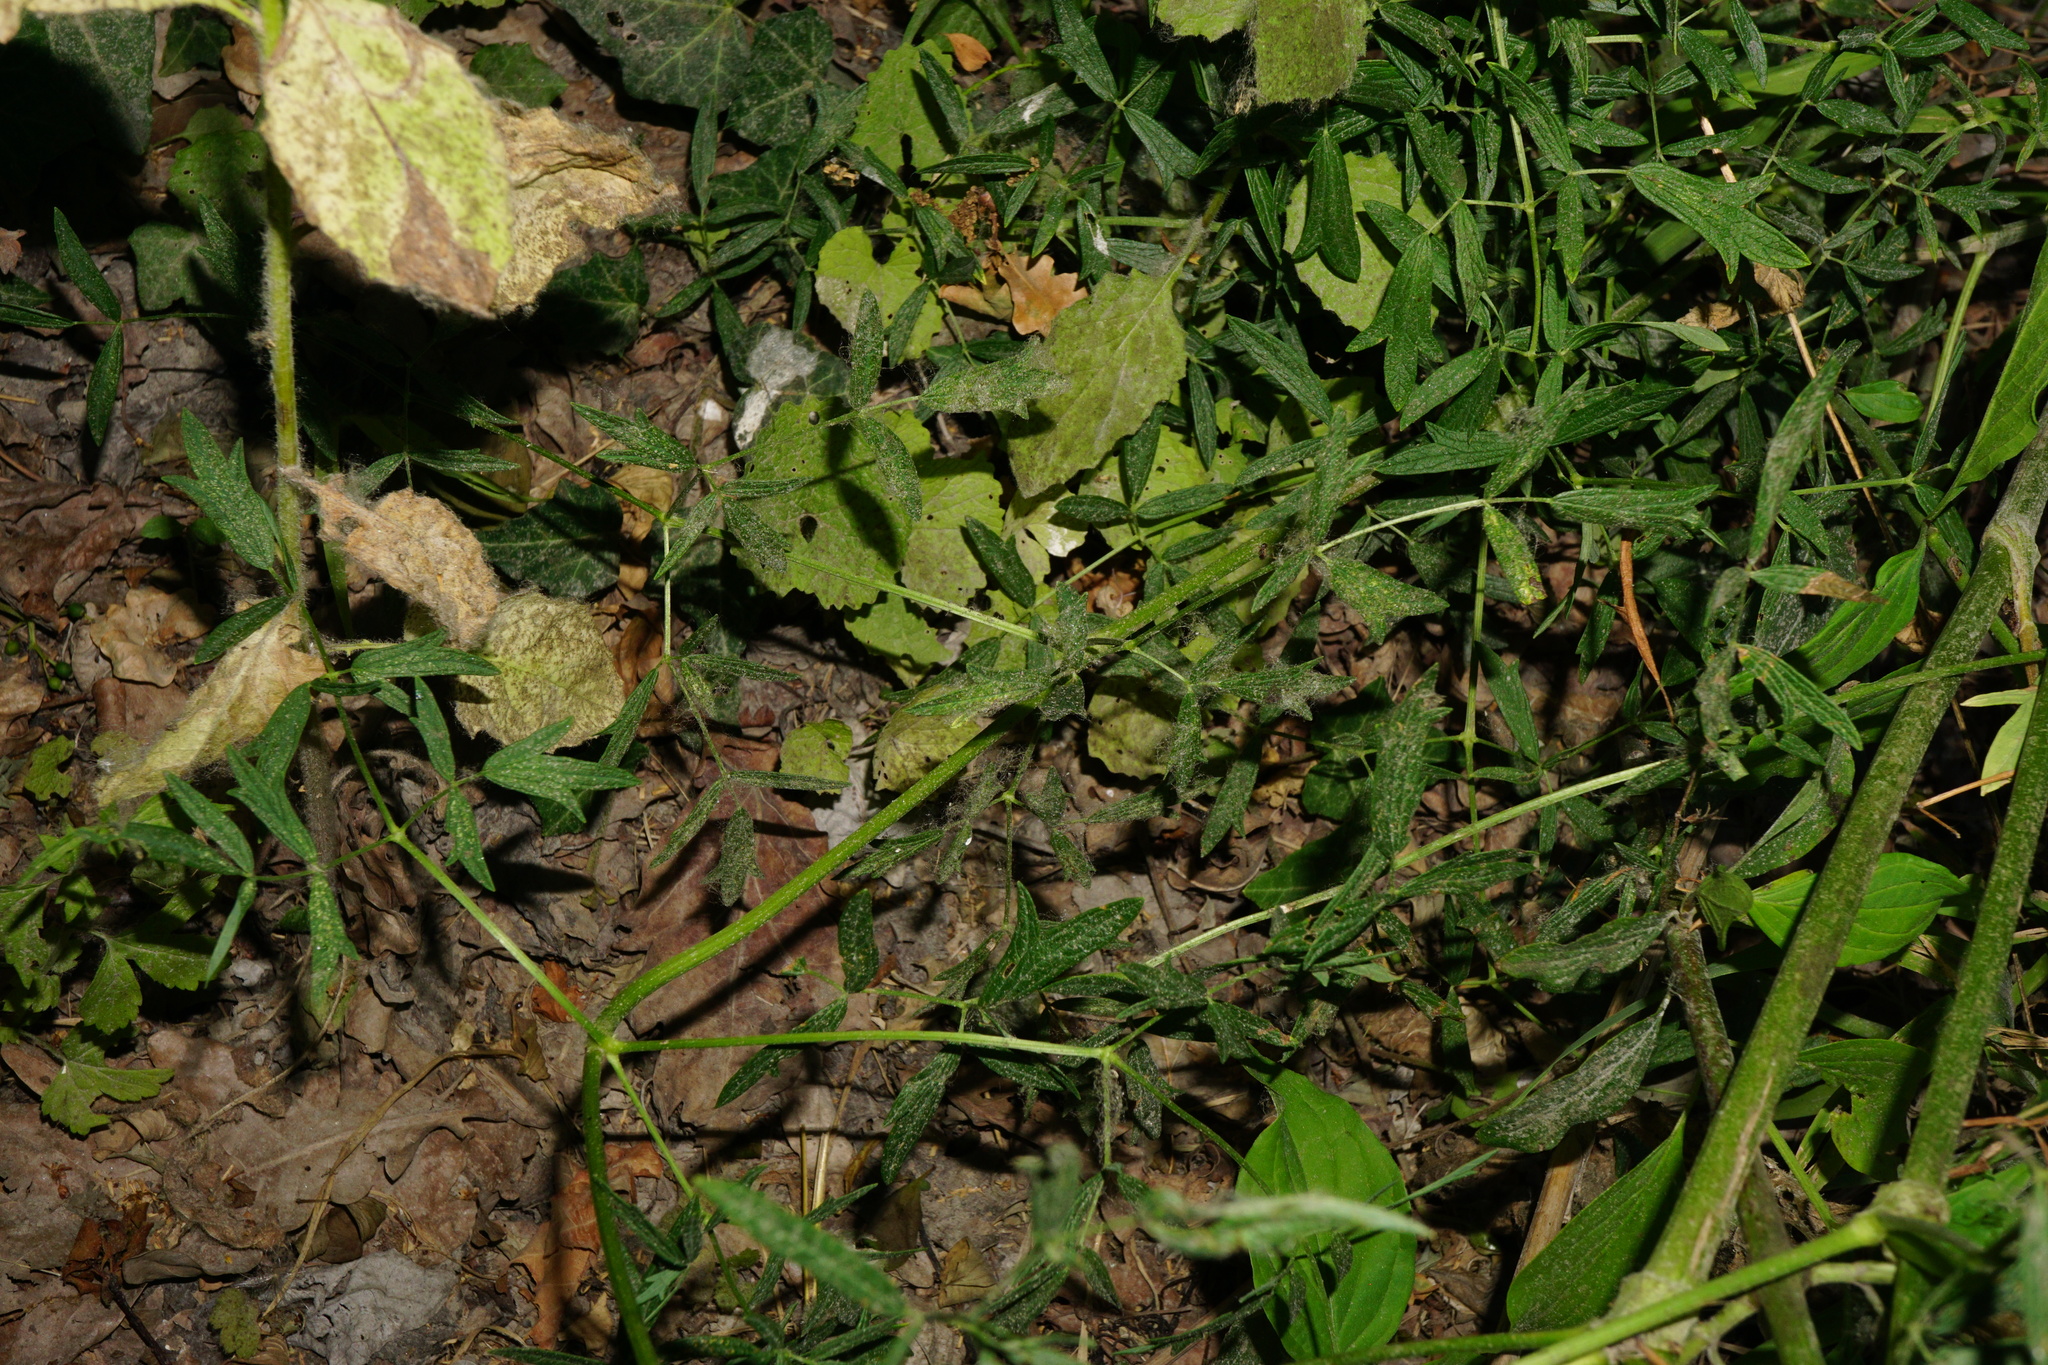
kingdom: Plantae
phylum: Tracheophyta
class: Magnoliopsida
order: Ranunculales
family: Ranunculaceae
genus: Thalictrum
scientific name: Thalictrum lucidum
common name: Shining meadow-rue
